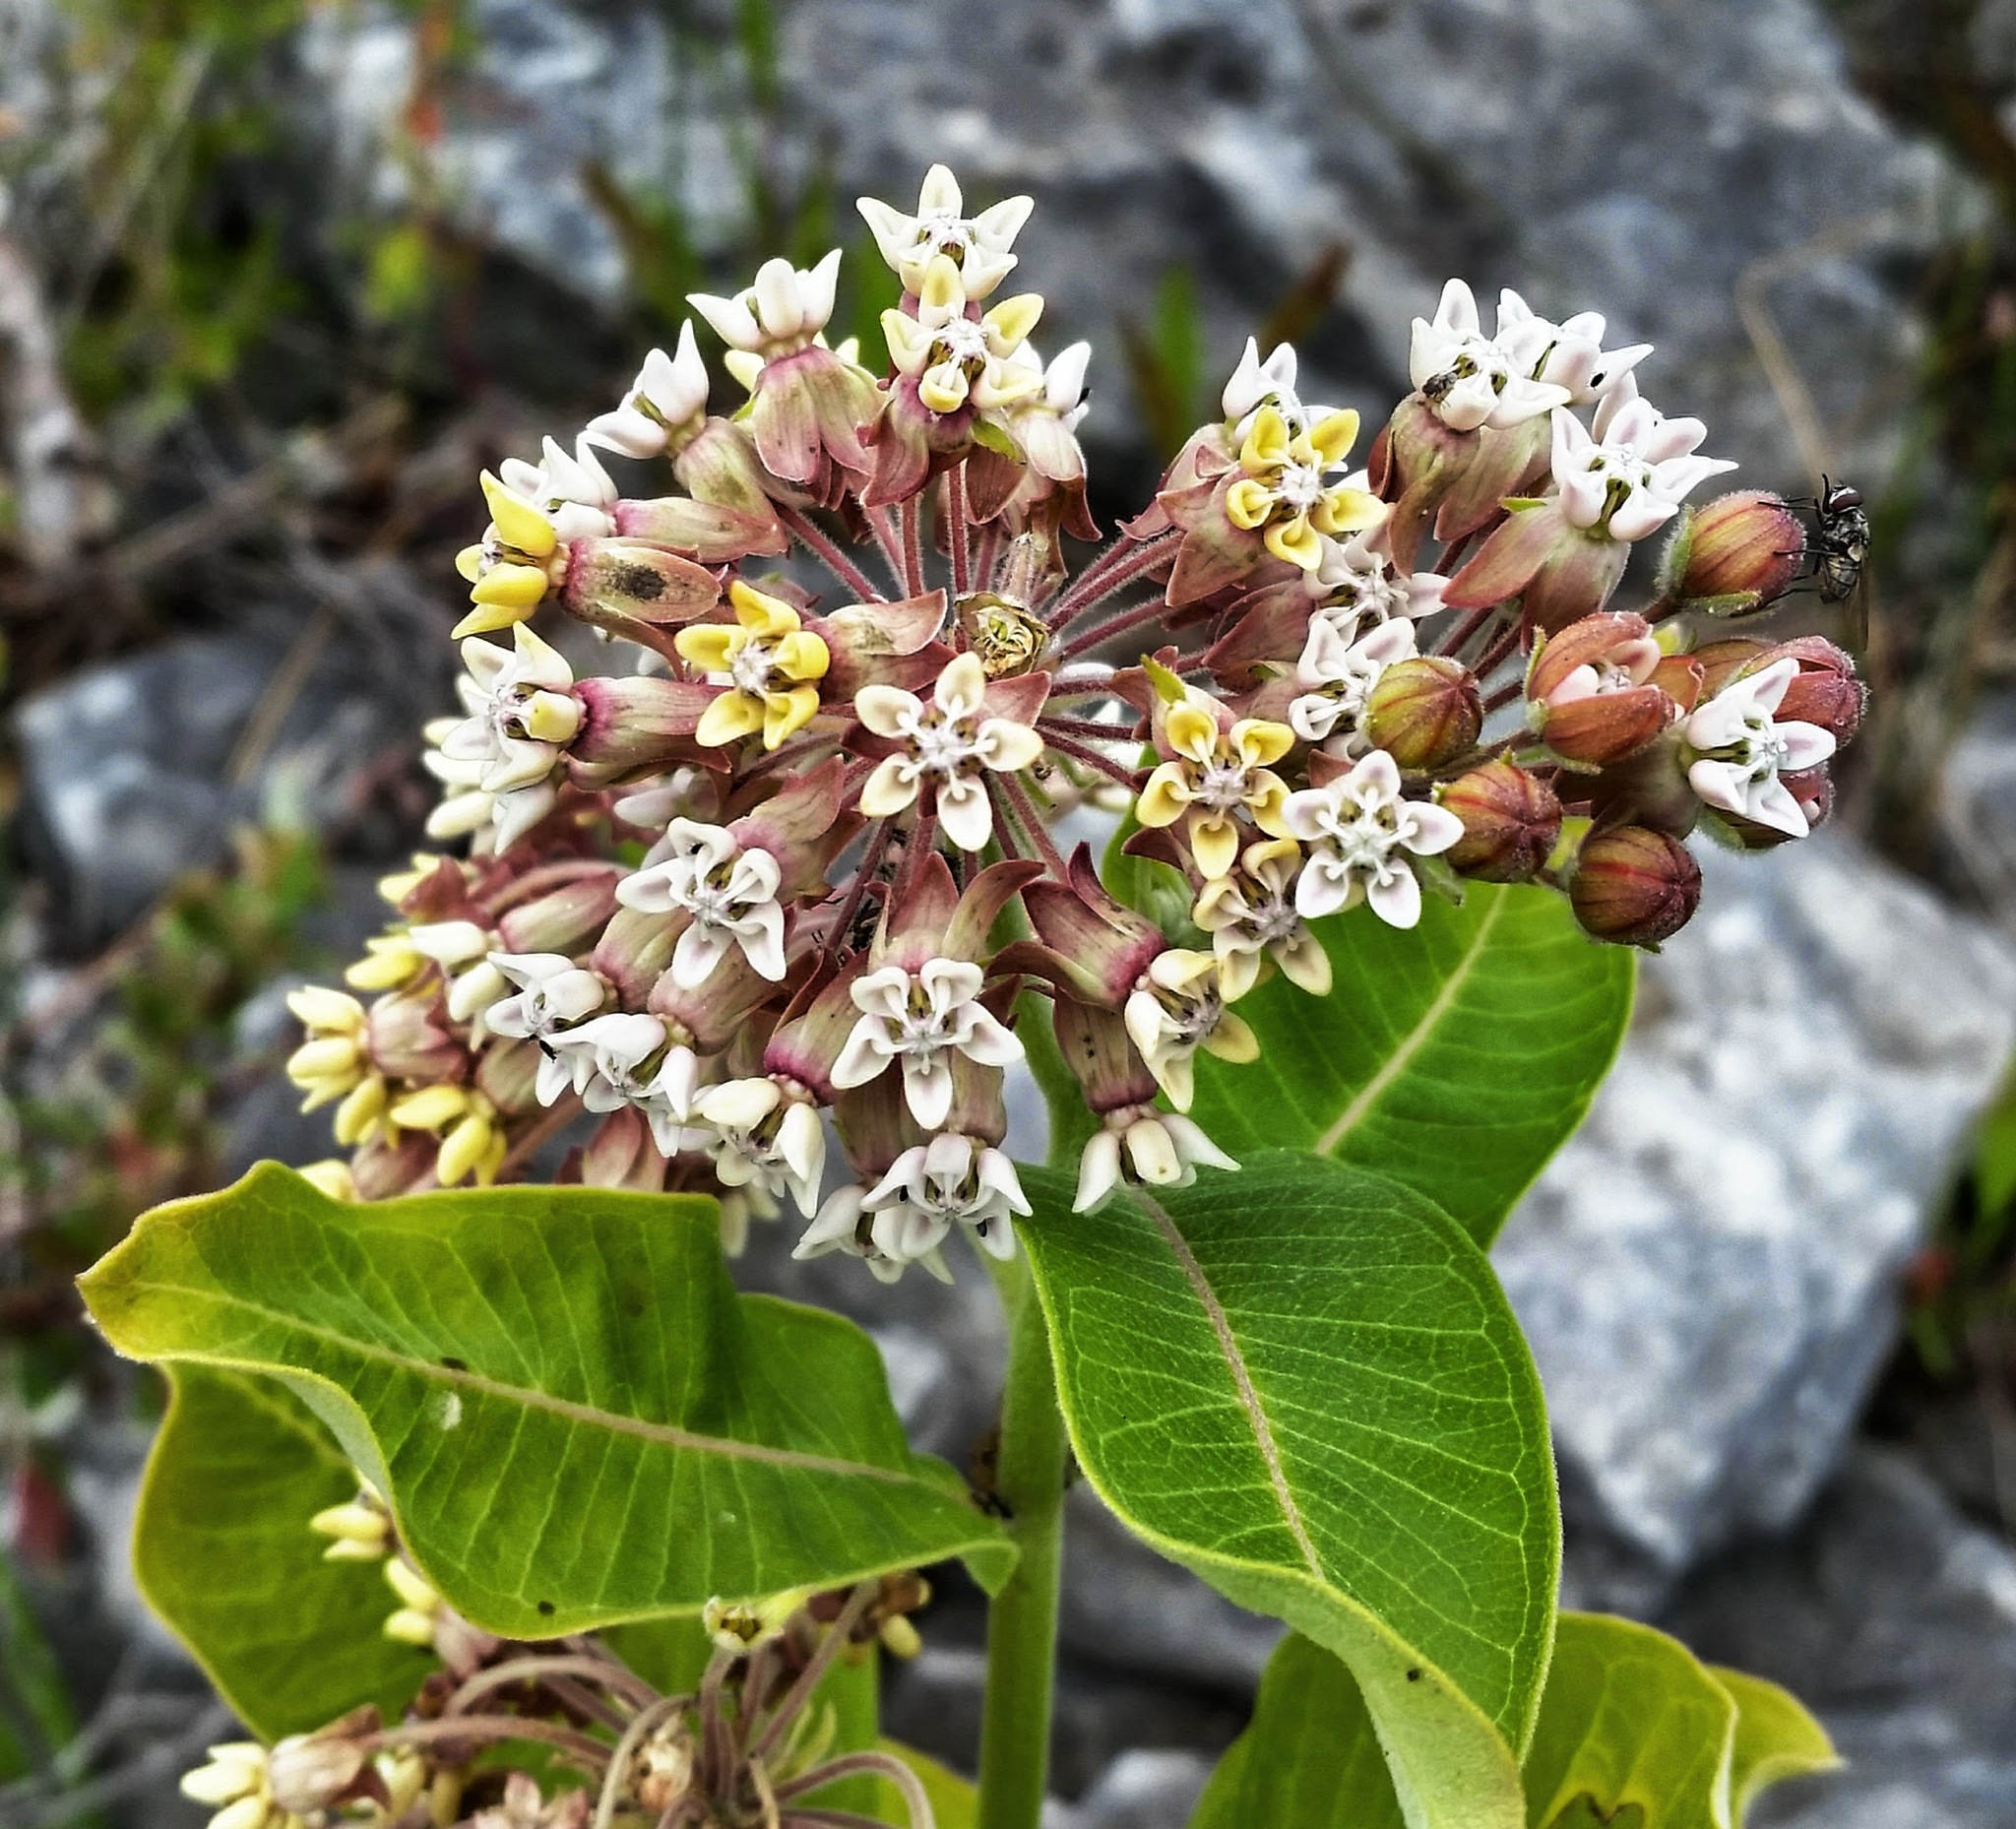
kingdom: Plantae
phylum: Tracheophyta
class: Magnoliopsida
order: Gentianales
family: Apocynaceae
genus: Asclepias
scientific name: Asclepias syriaca
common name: Common milkweed
